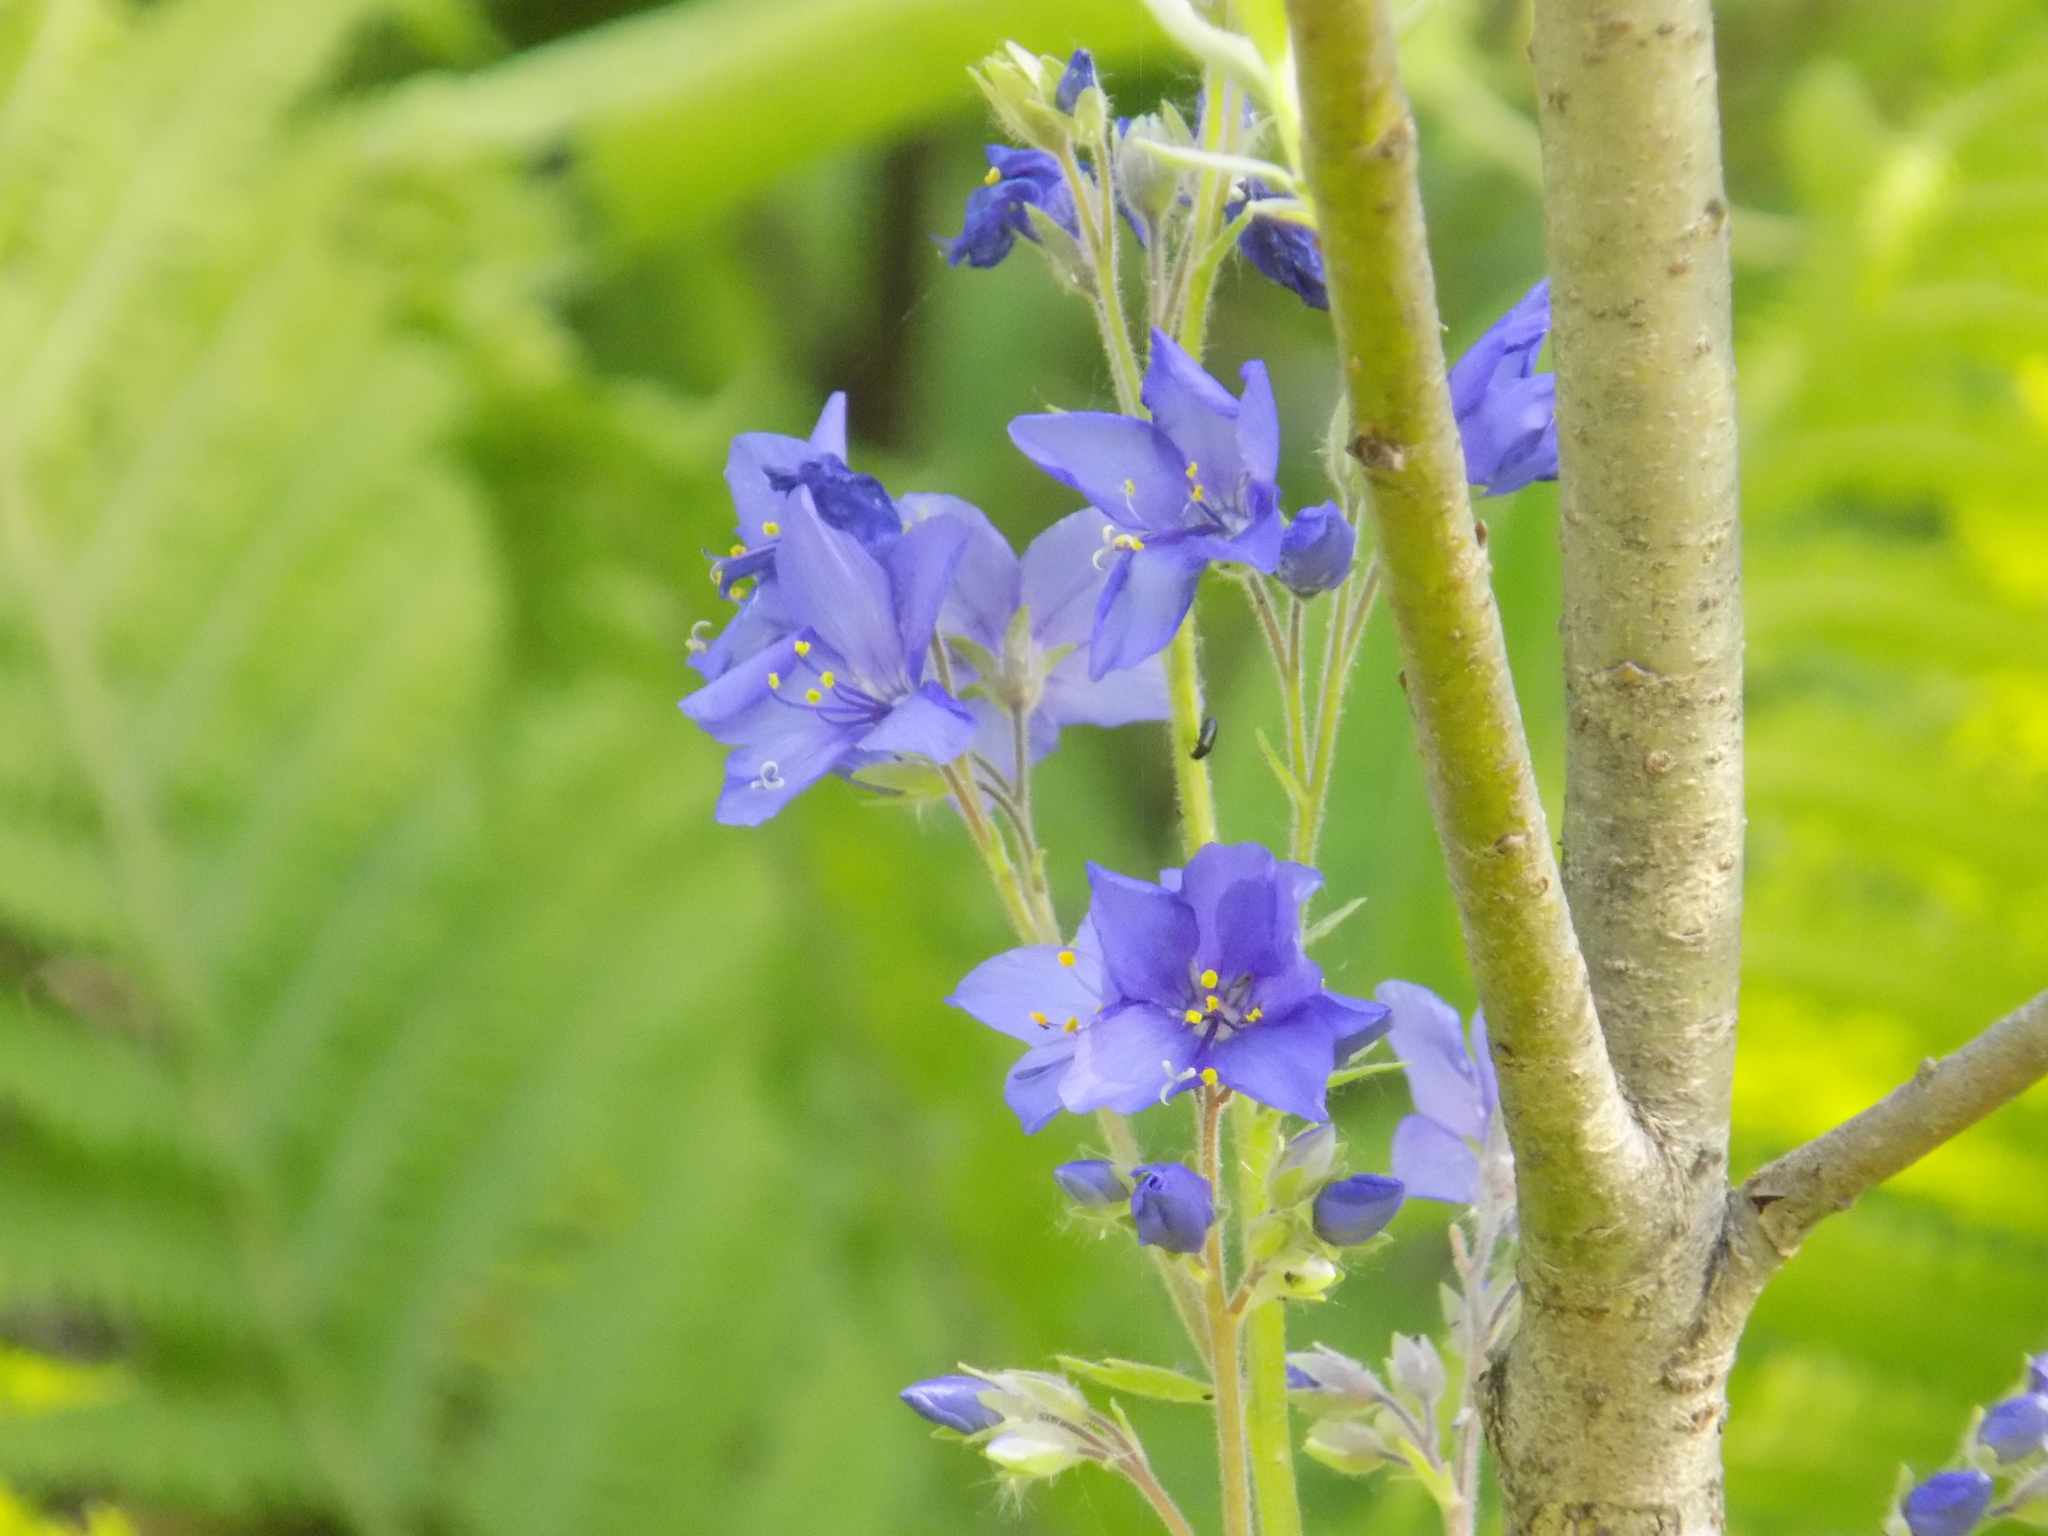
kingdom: Plantae
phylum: Tracheophyta
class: Magnoliopsida
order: Ericales
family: Polemoniaceae
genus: Polemonium
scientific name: Polemonium caeruleum
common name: Jacob's-ladder
